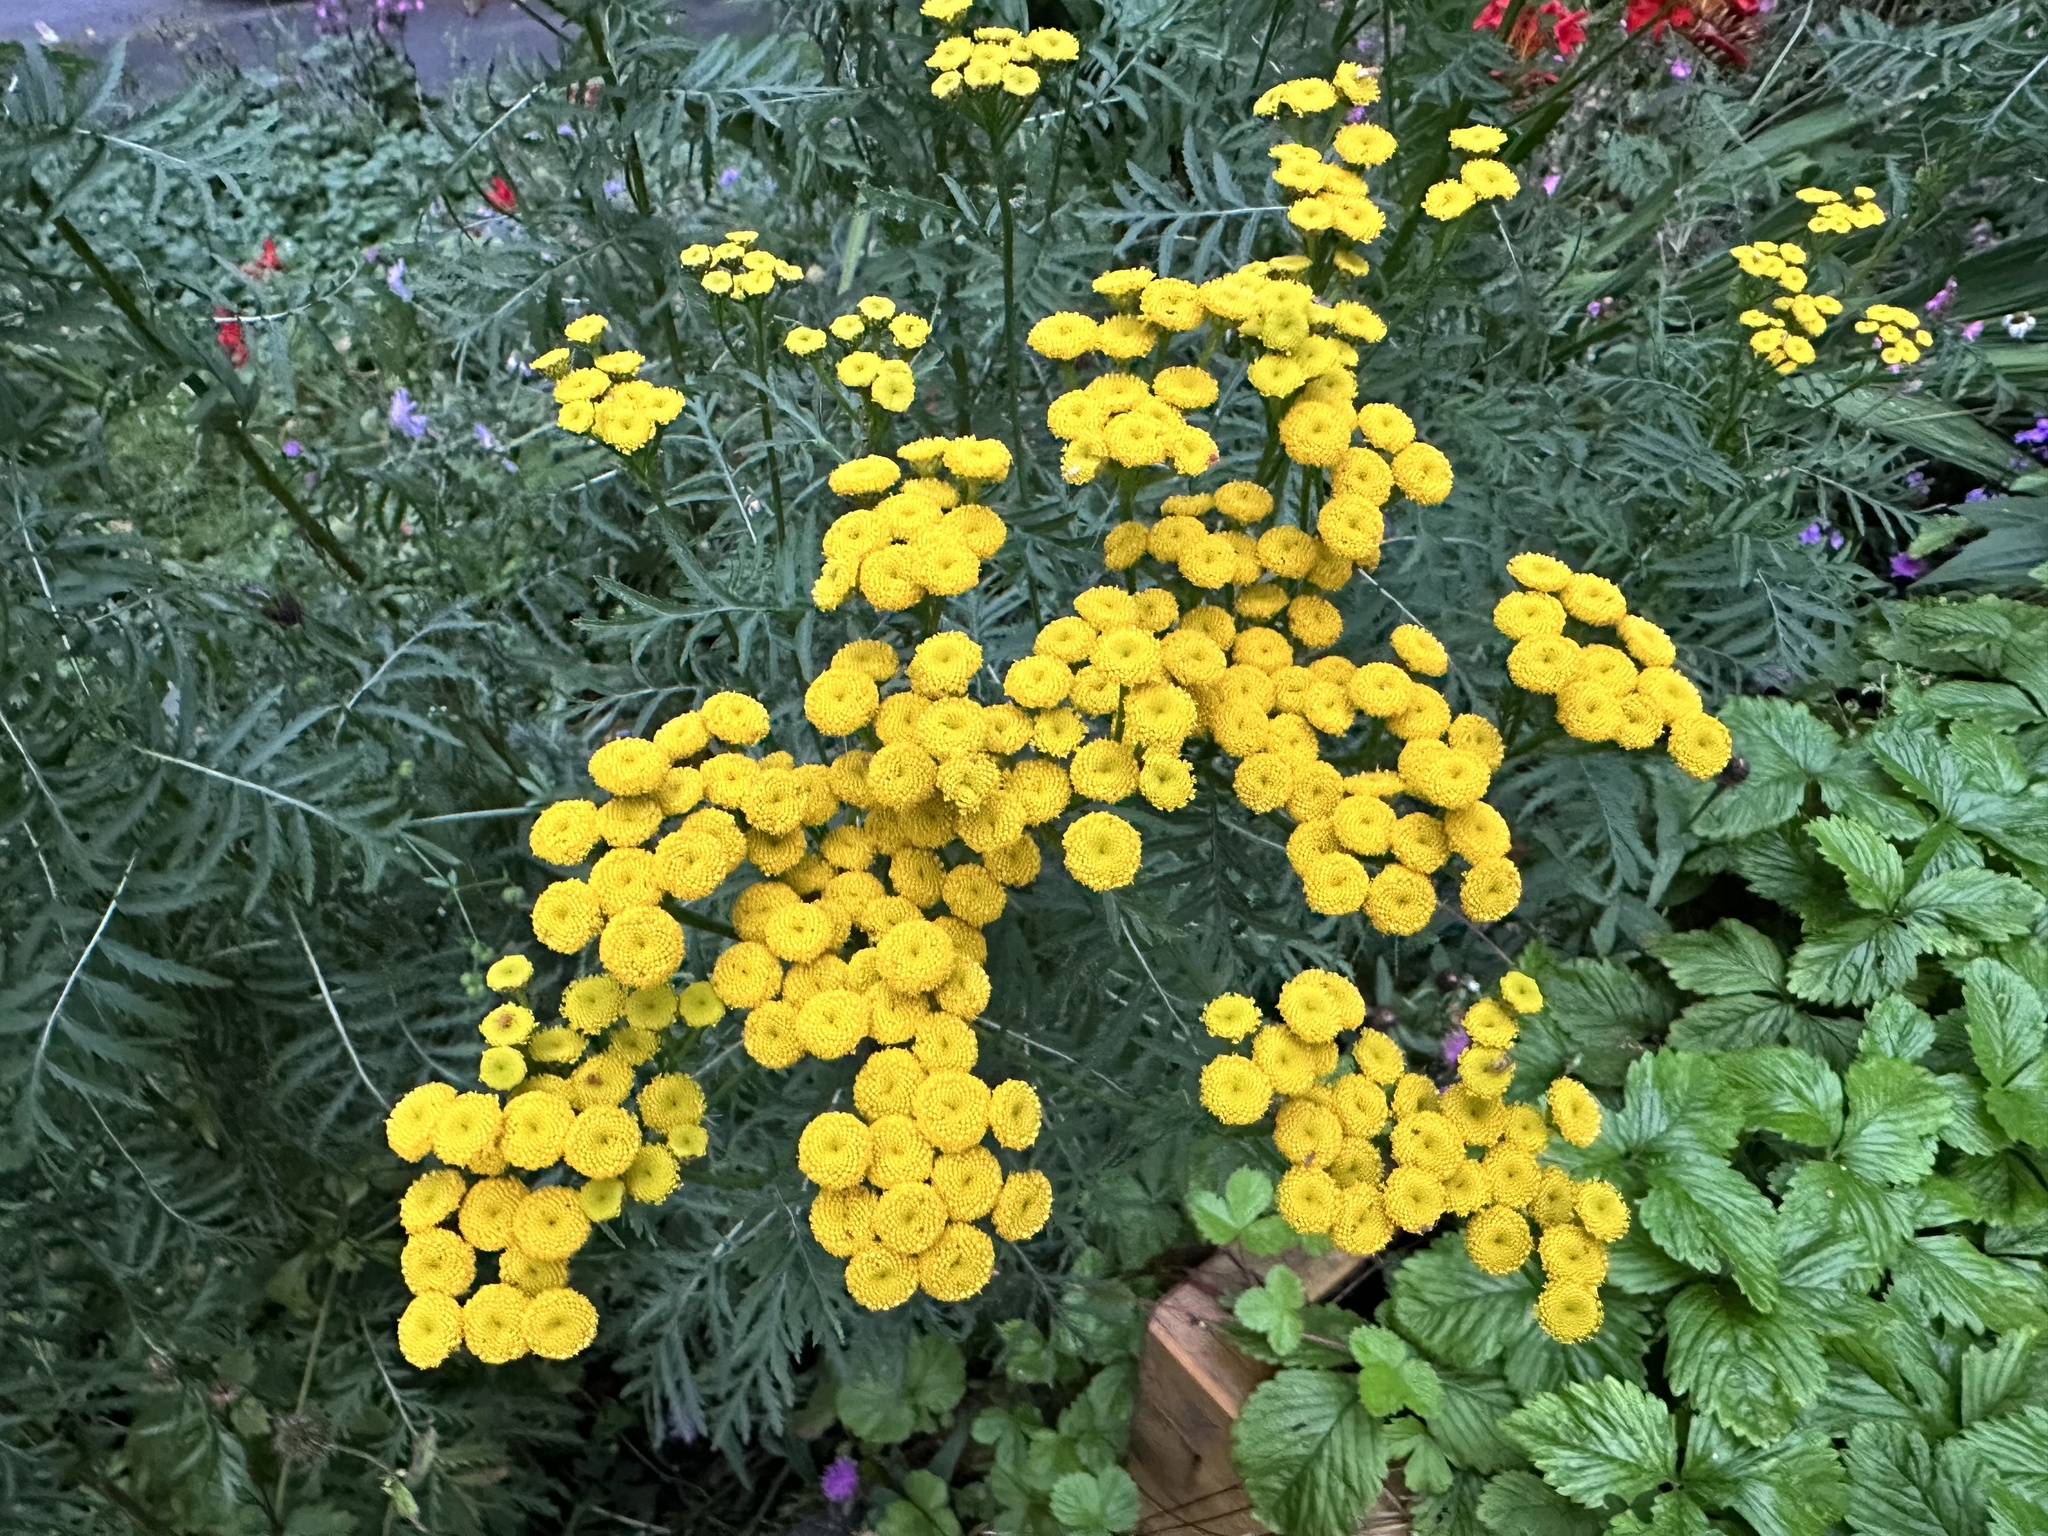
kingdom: Plantae
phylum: Tracheophyta
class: Magnoliopsida
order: Asterales
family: Asteraceae
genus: Tanacetum
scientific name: Tanacetum vulgare
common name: Common tansy
